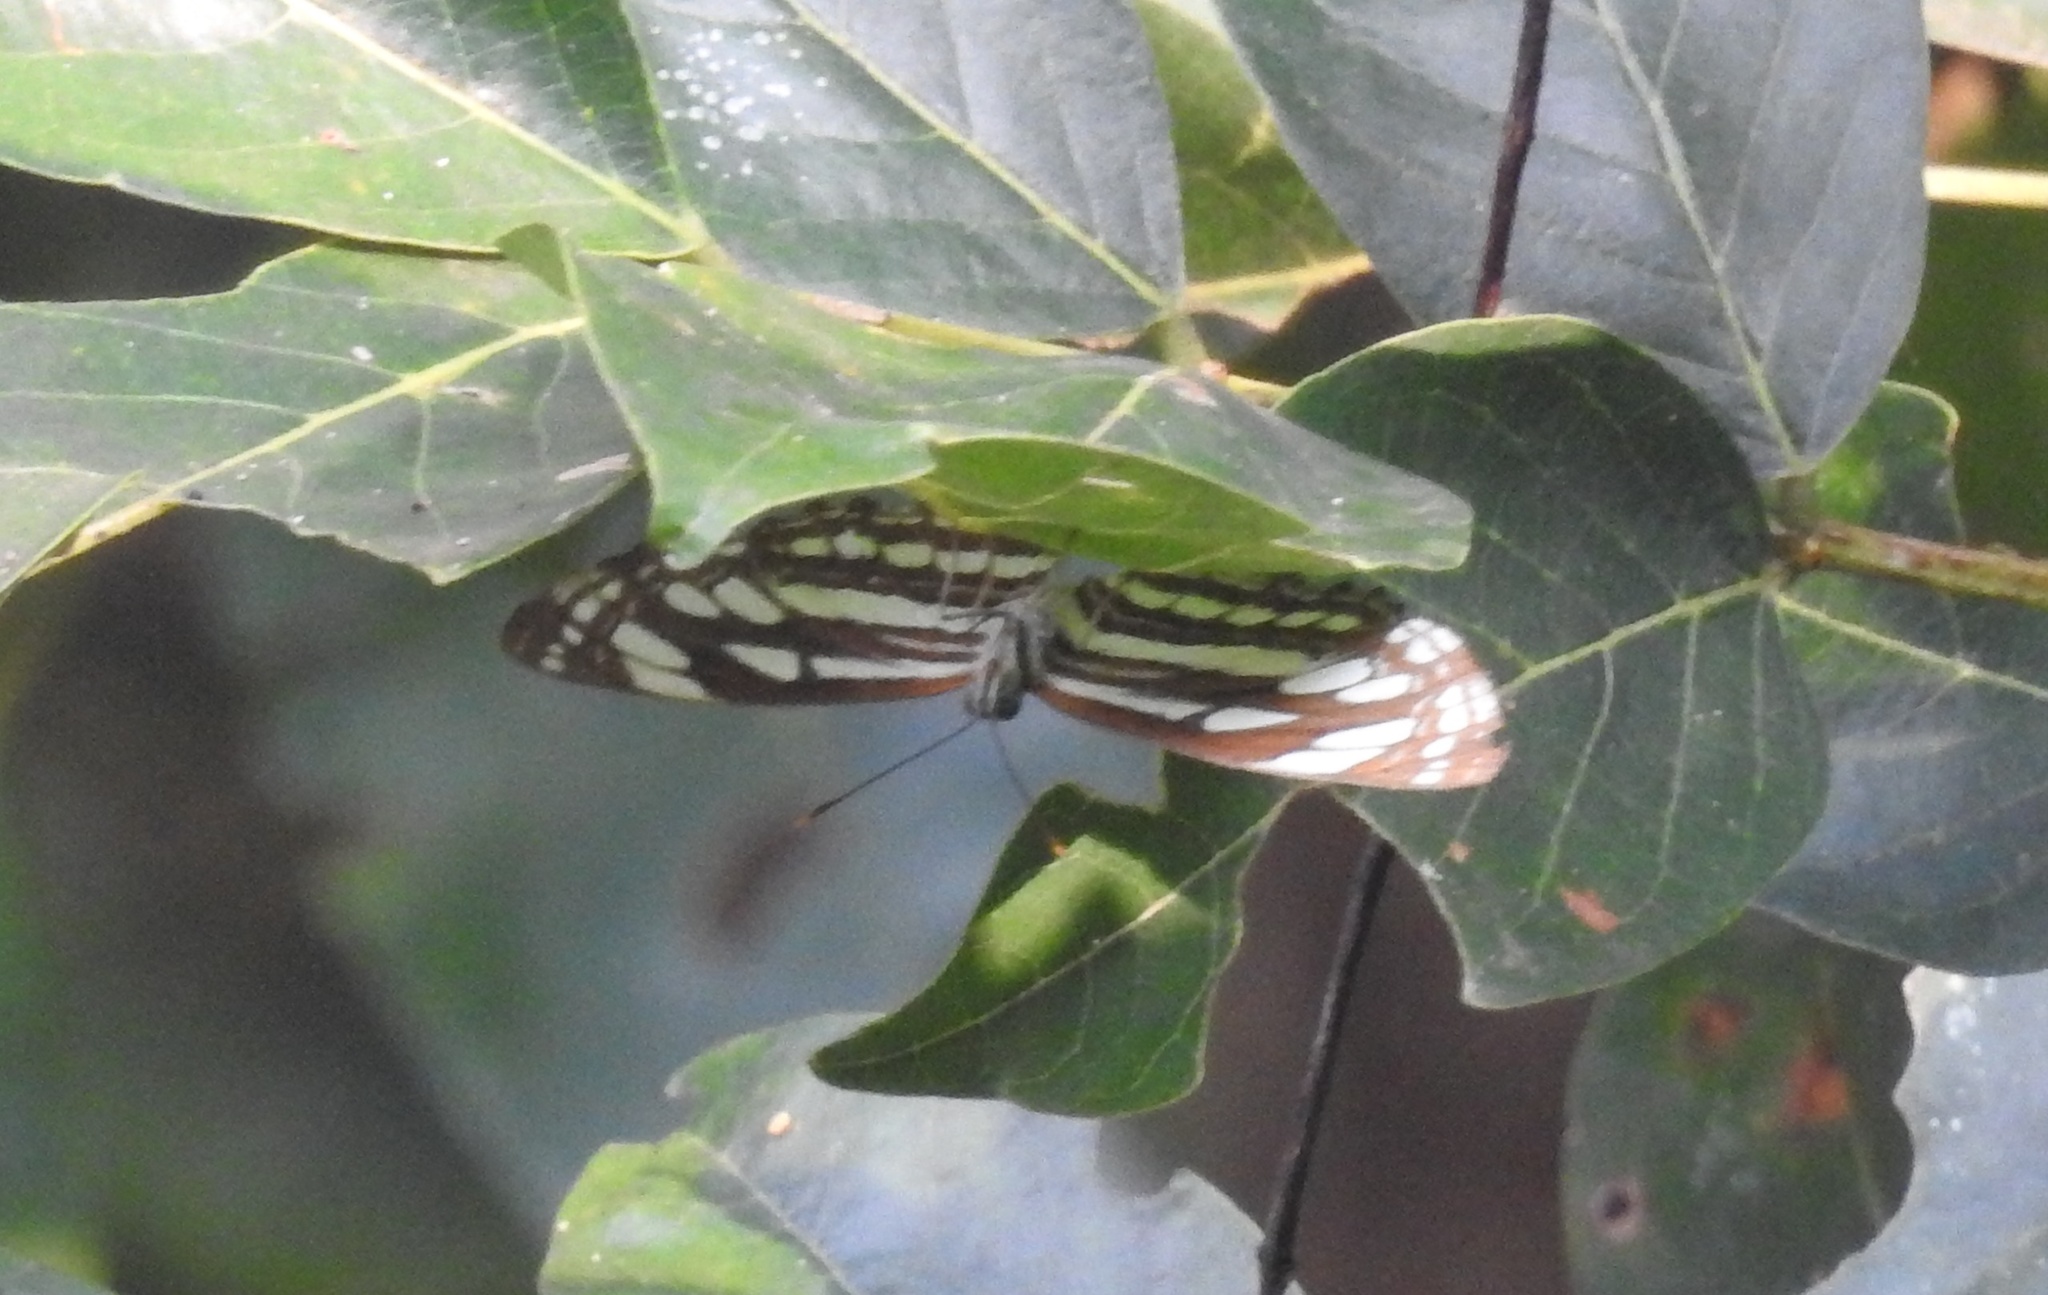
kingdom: Animalia
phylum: Arthropoda
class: Insecta
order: Lepidoptera
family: Nymphalidae
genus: Neptis
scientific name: Neptis hylas
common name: Common sailer
